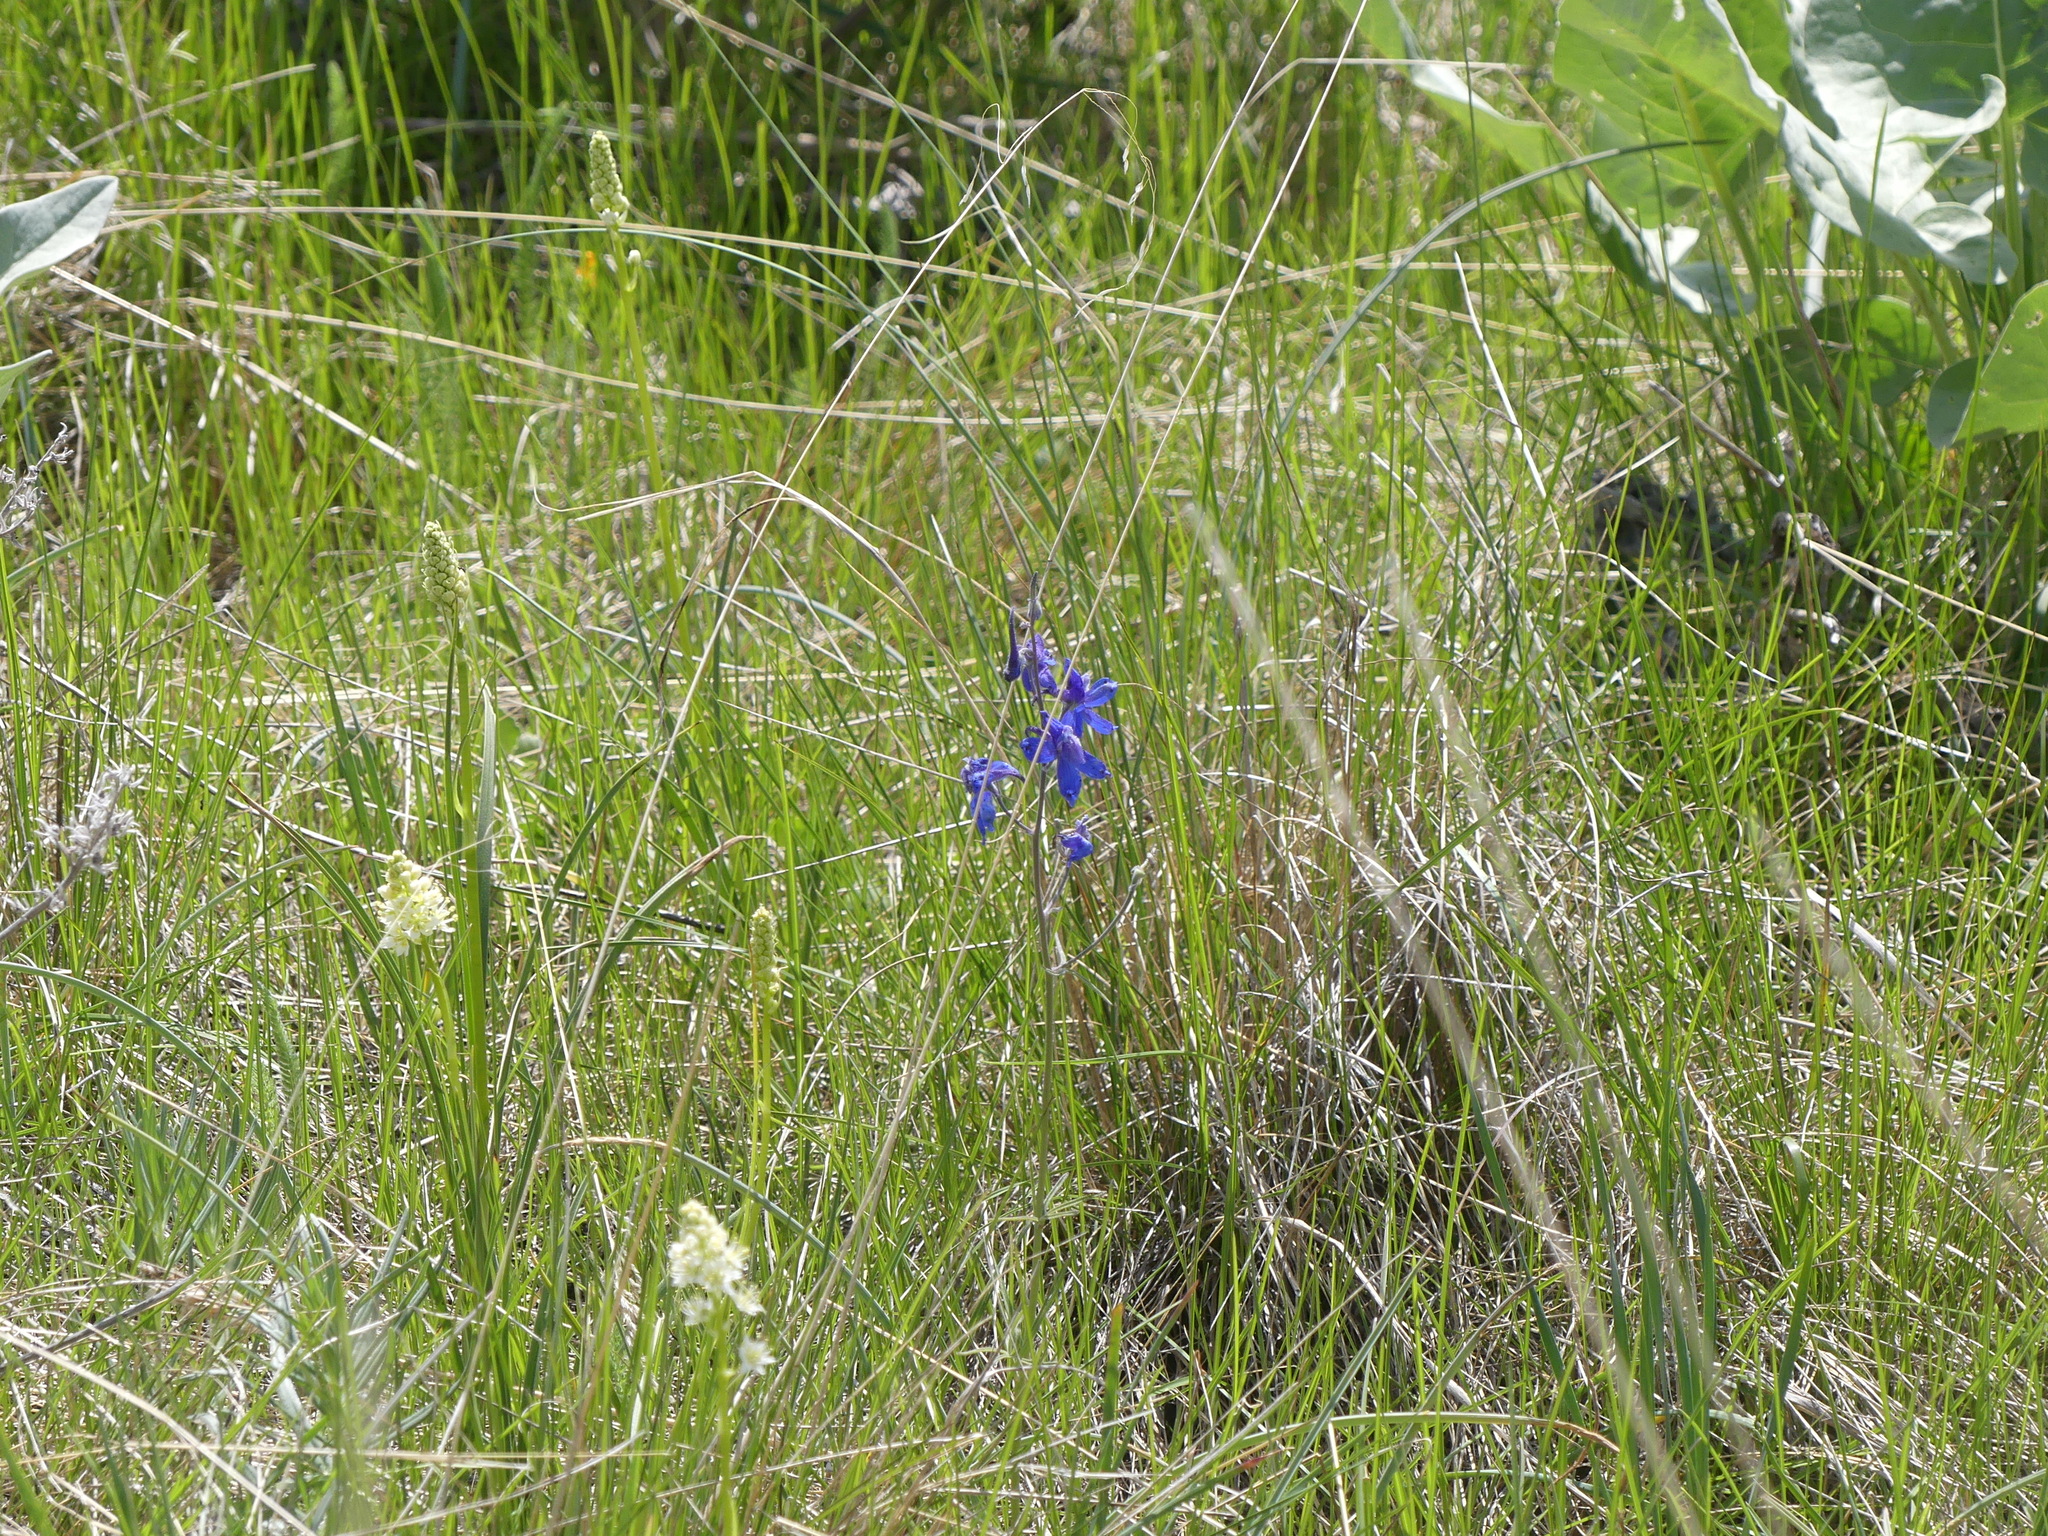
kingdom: Plantae
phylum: Tracheophyta
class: Magnoliopsida
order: Ranunculales
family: Ranunculaceae
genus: Delphinium
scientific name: Delphinium nuttallianum
